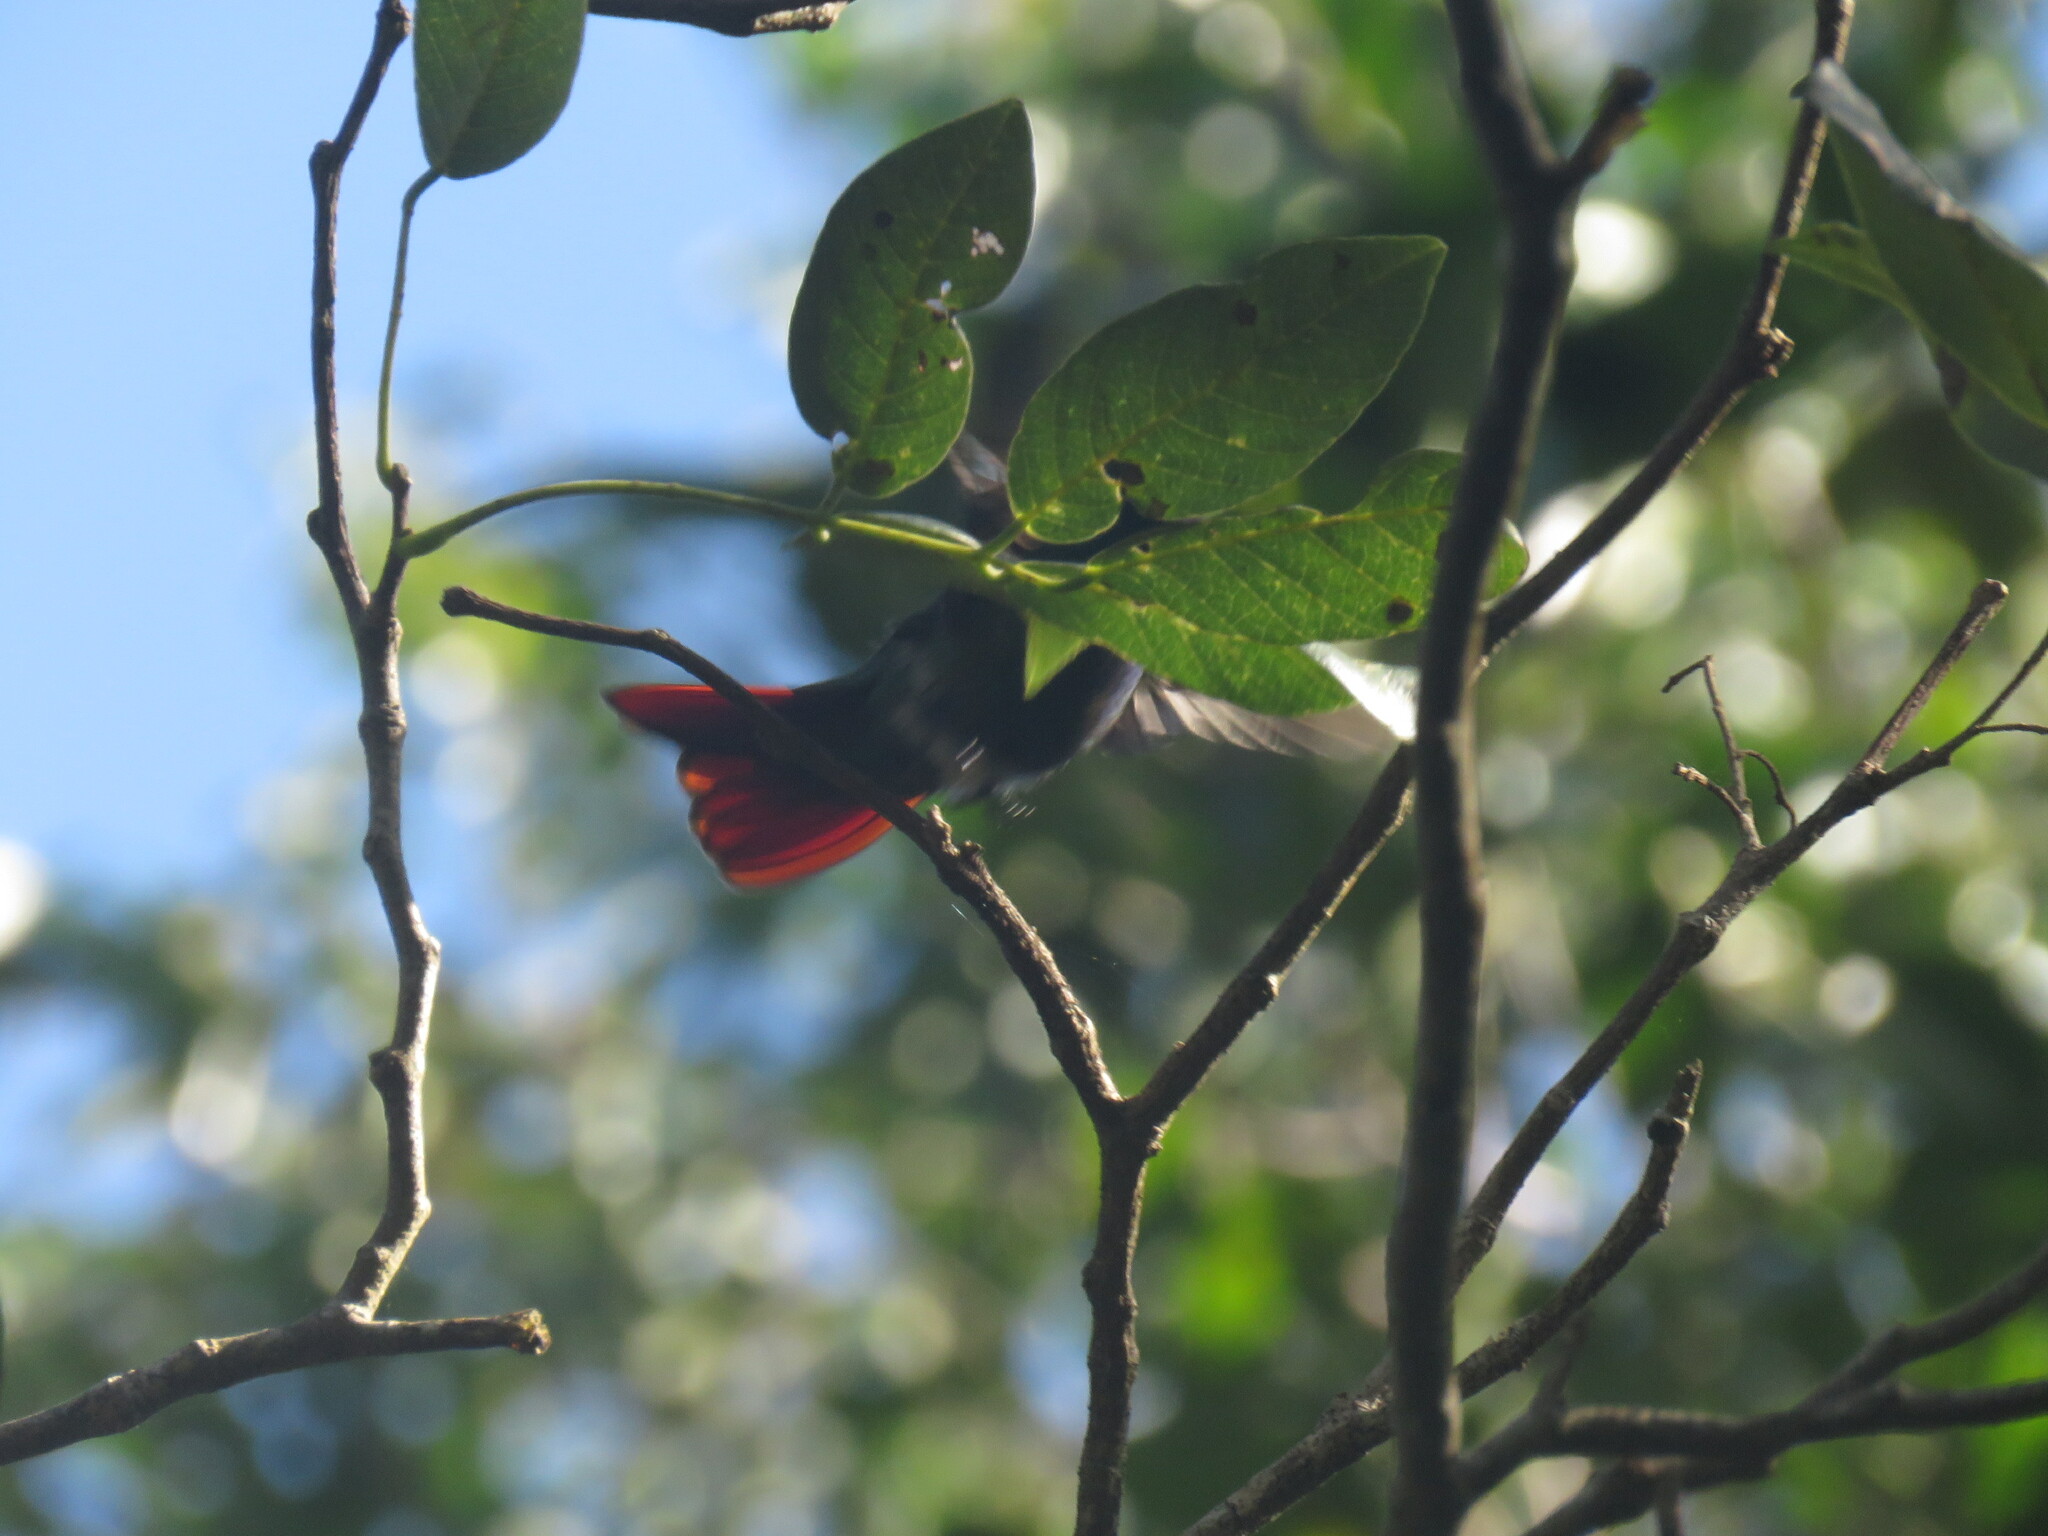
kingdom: Animalia
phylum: Chordata
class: Aves
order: Apodiformes
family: Trochilidae
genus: Anthracothorax
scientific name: Anthracothorax prevostii
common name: Green-breasted mango
